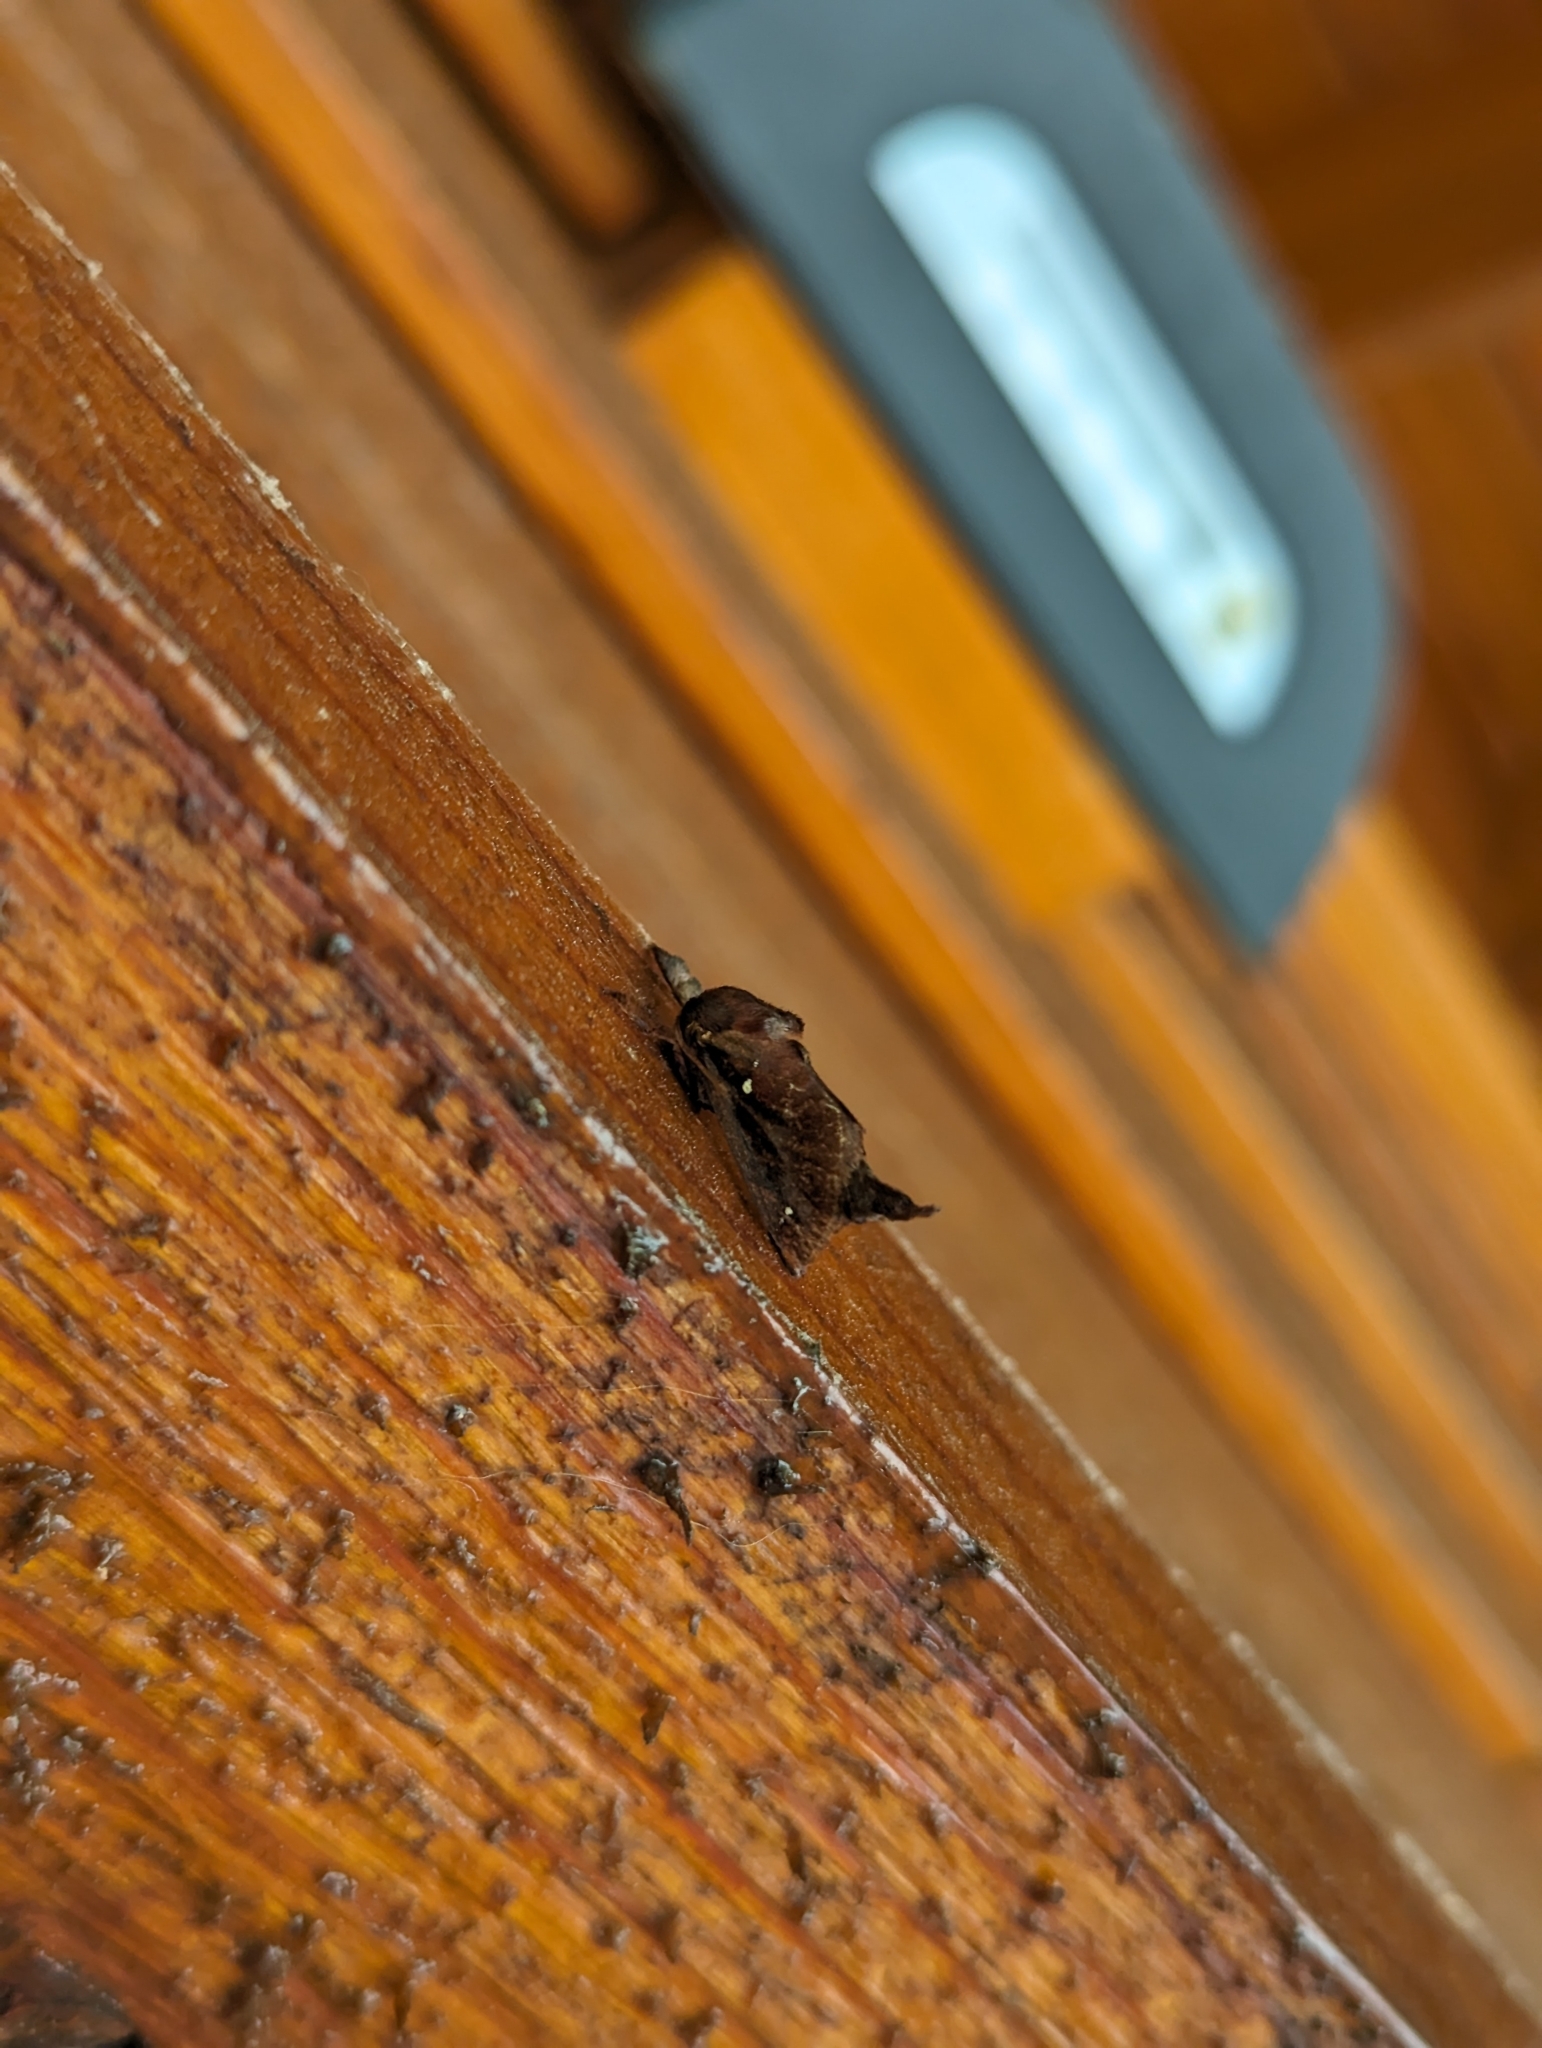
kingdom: Animalia
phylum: Arthropoda
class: Insecta
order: Lepidoptera
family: Limacodidae
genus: Acharia
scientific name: Acharia stimulea
